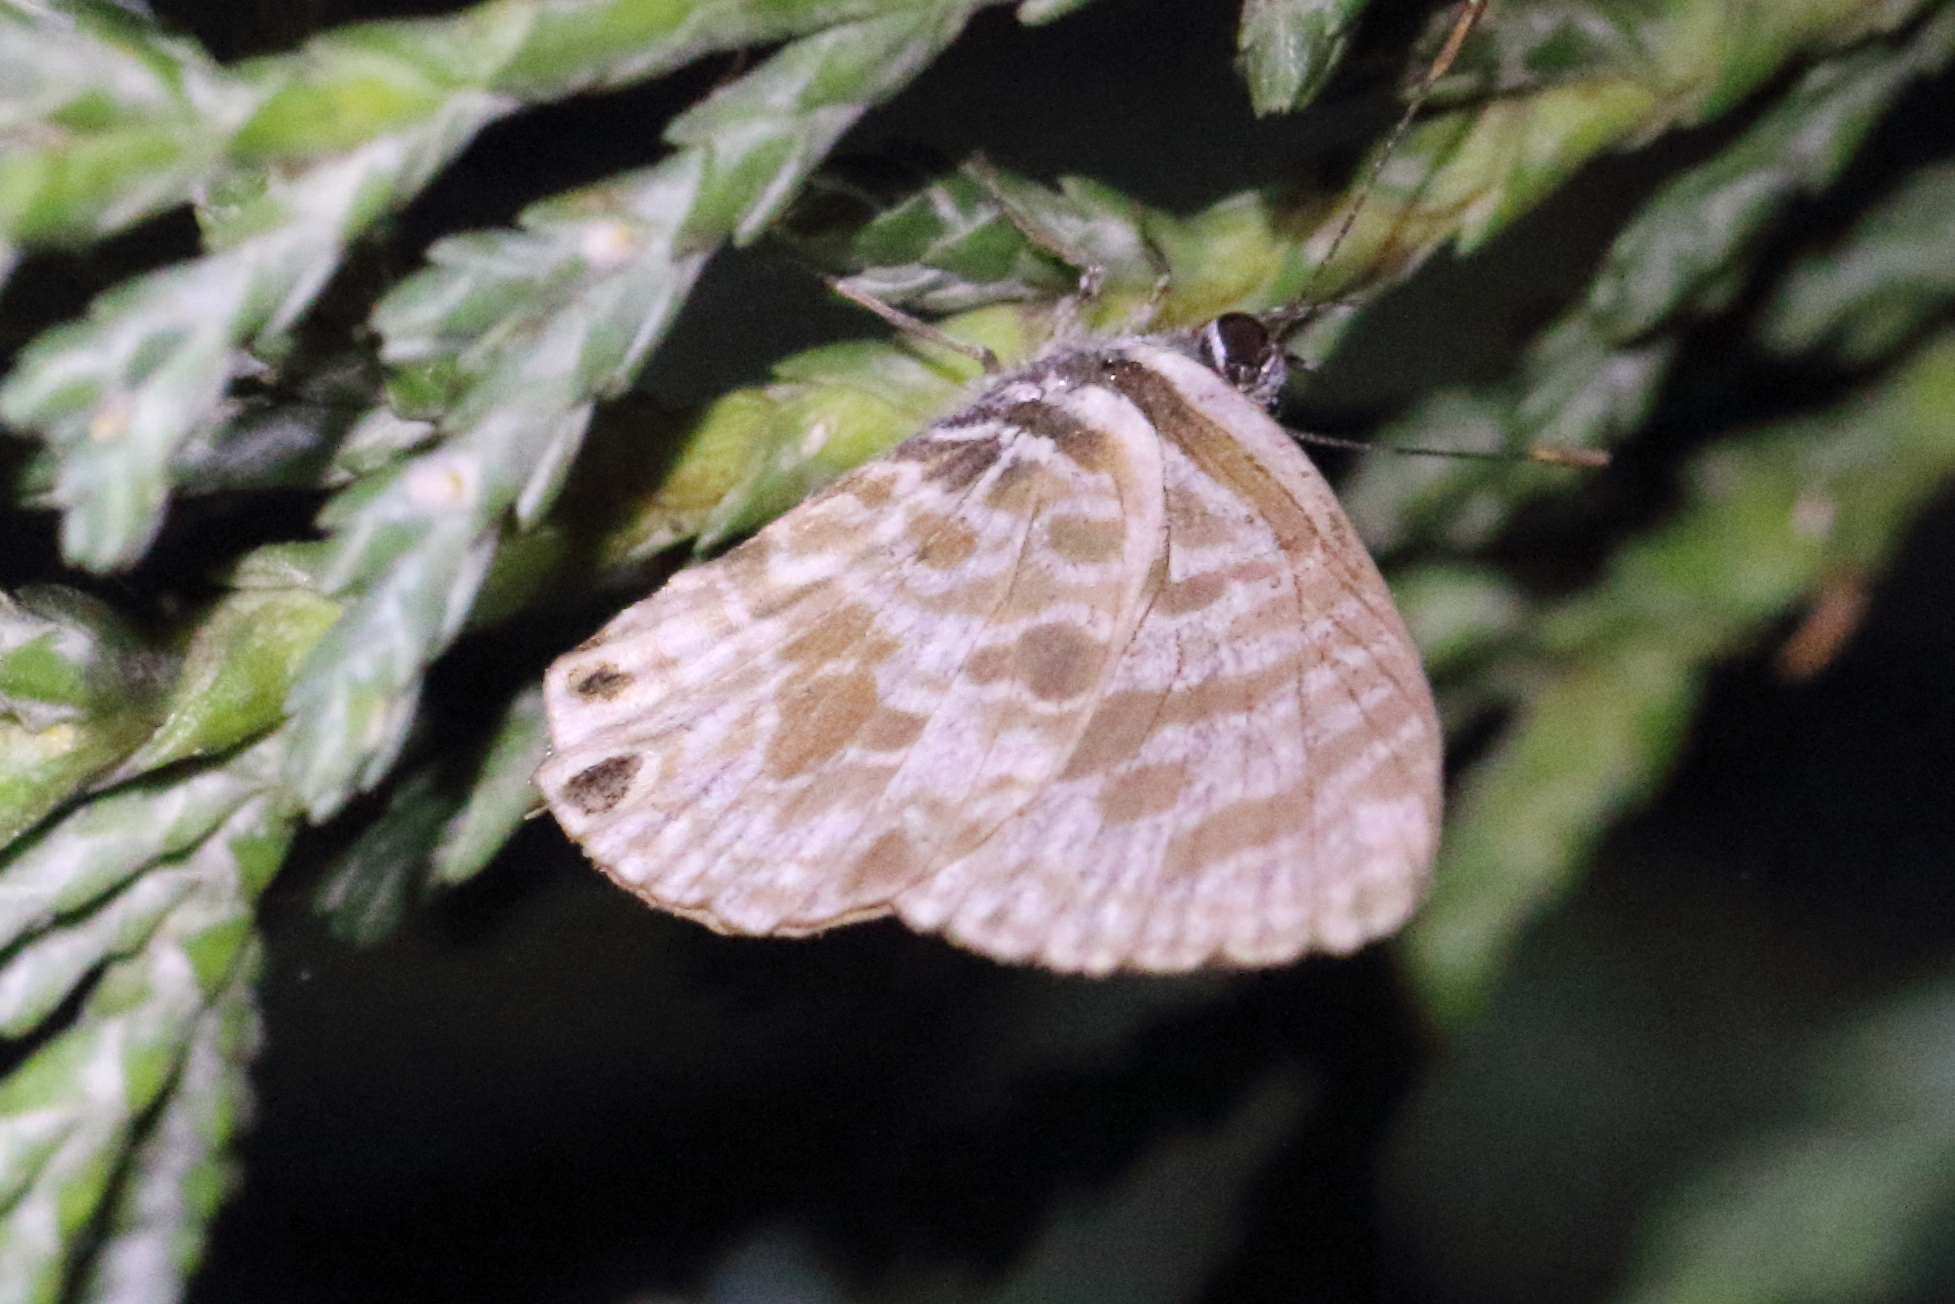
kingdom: Animalia
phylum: Arthropoda
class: Insecta
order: Lepidoptera
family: Lycaenidae
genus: Leptotes
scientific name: Leptotes plinius
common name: Zebra blue
